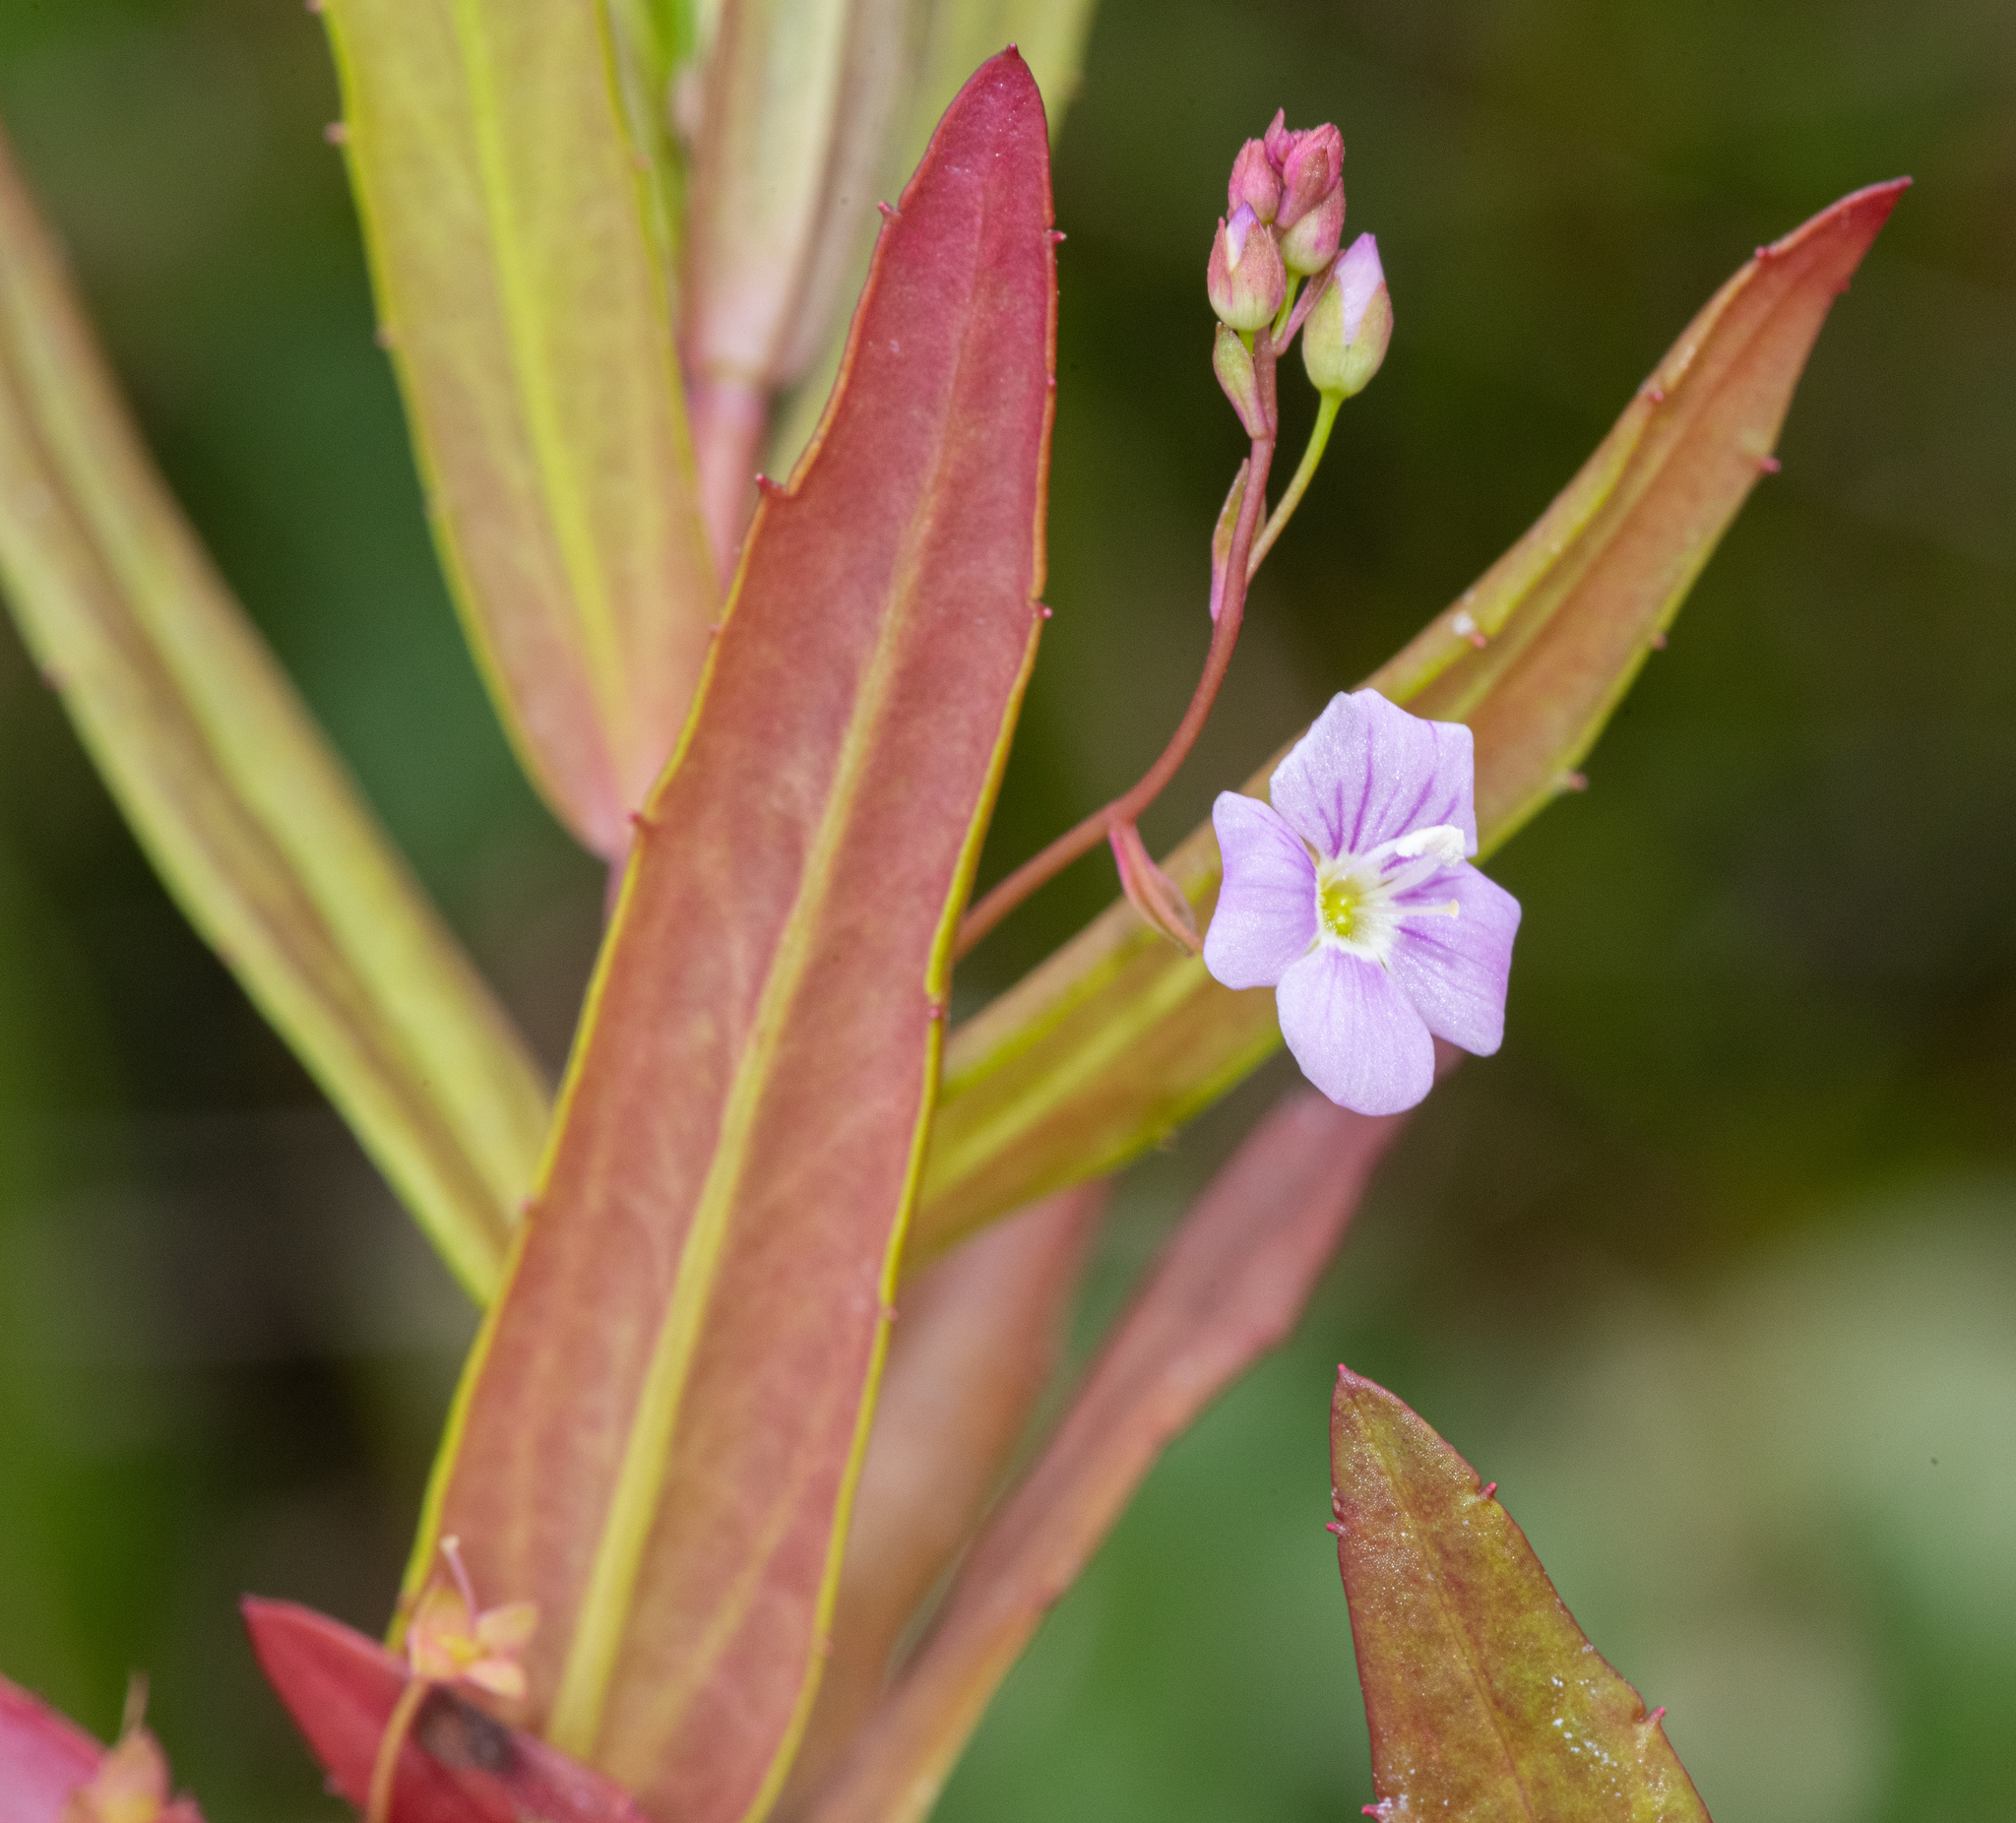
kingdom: Plantae
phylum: Tracheophyta
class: Magnoliopsida
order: Lamiales
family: Plantaginaceae
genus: Veronica
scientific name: Veronica scutellata
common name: Marsh speedwell
